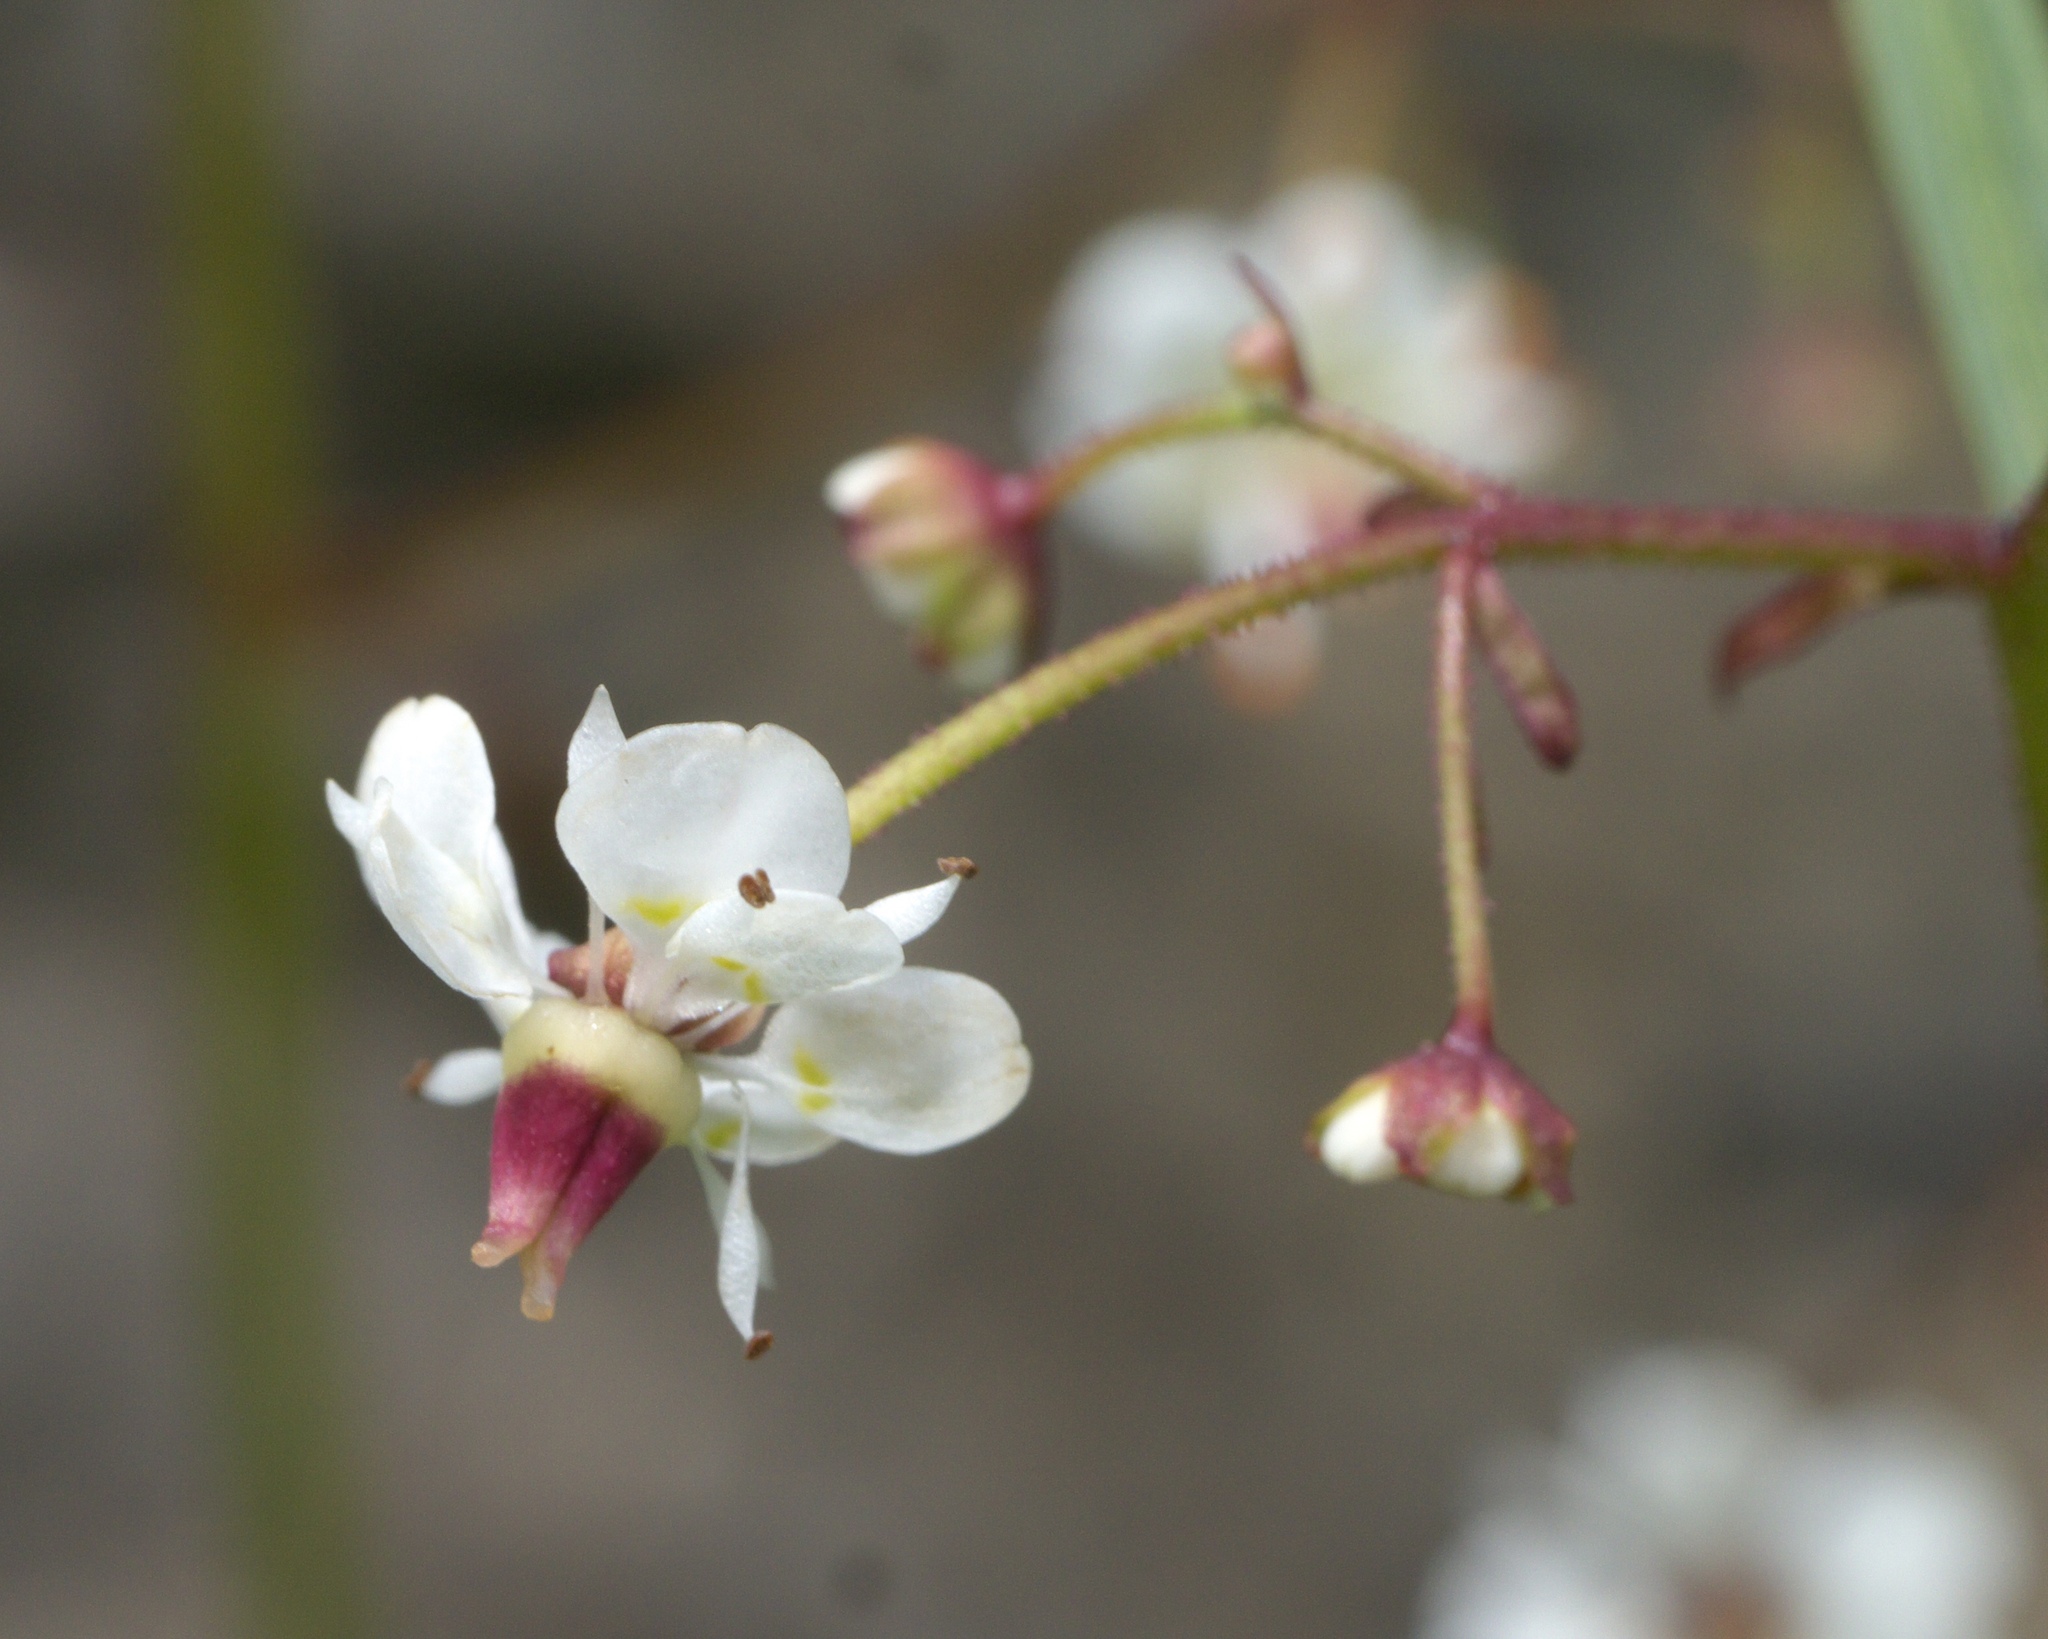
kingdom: Plantae
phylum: Tracheophyta
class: Magnoliopsida
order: Saxifragales
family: Saxifragaceae
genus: Micranthes
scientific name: Micranthes odontoloma
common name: Brook saxifrage
